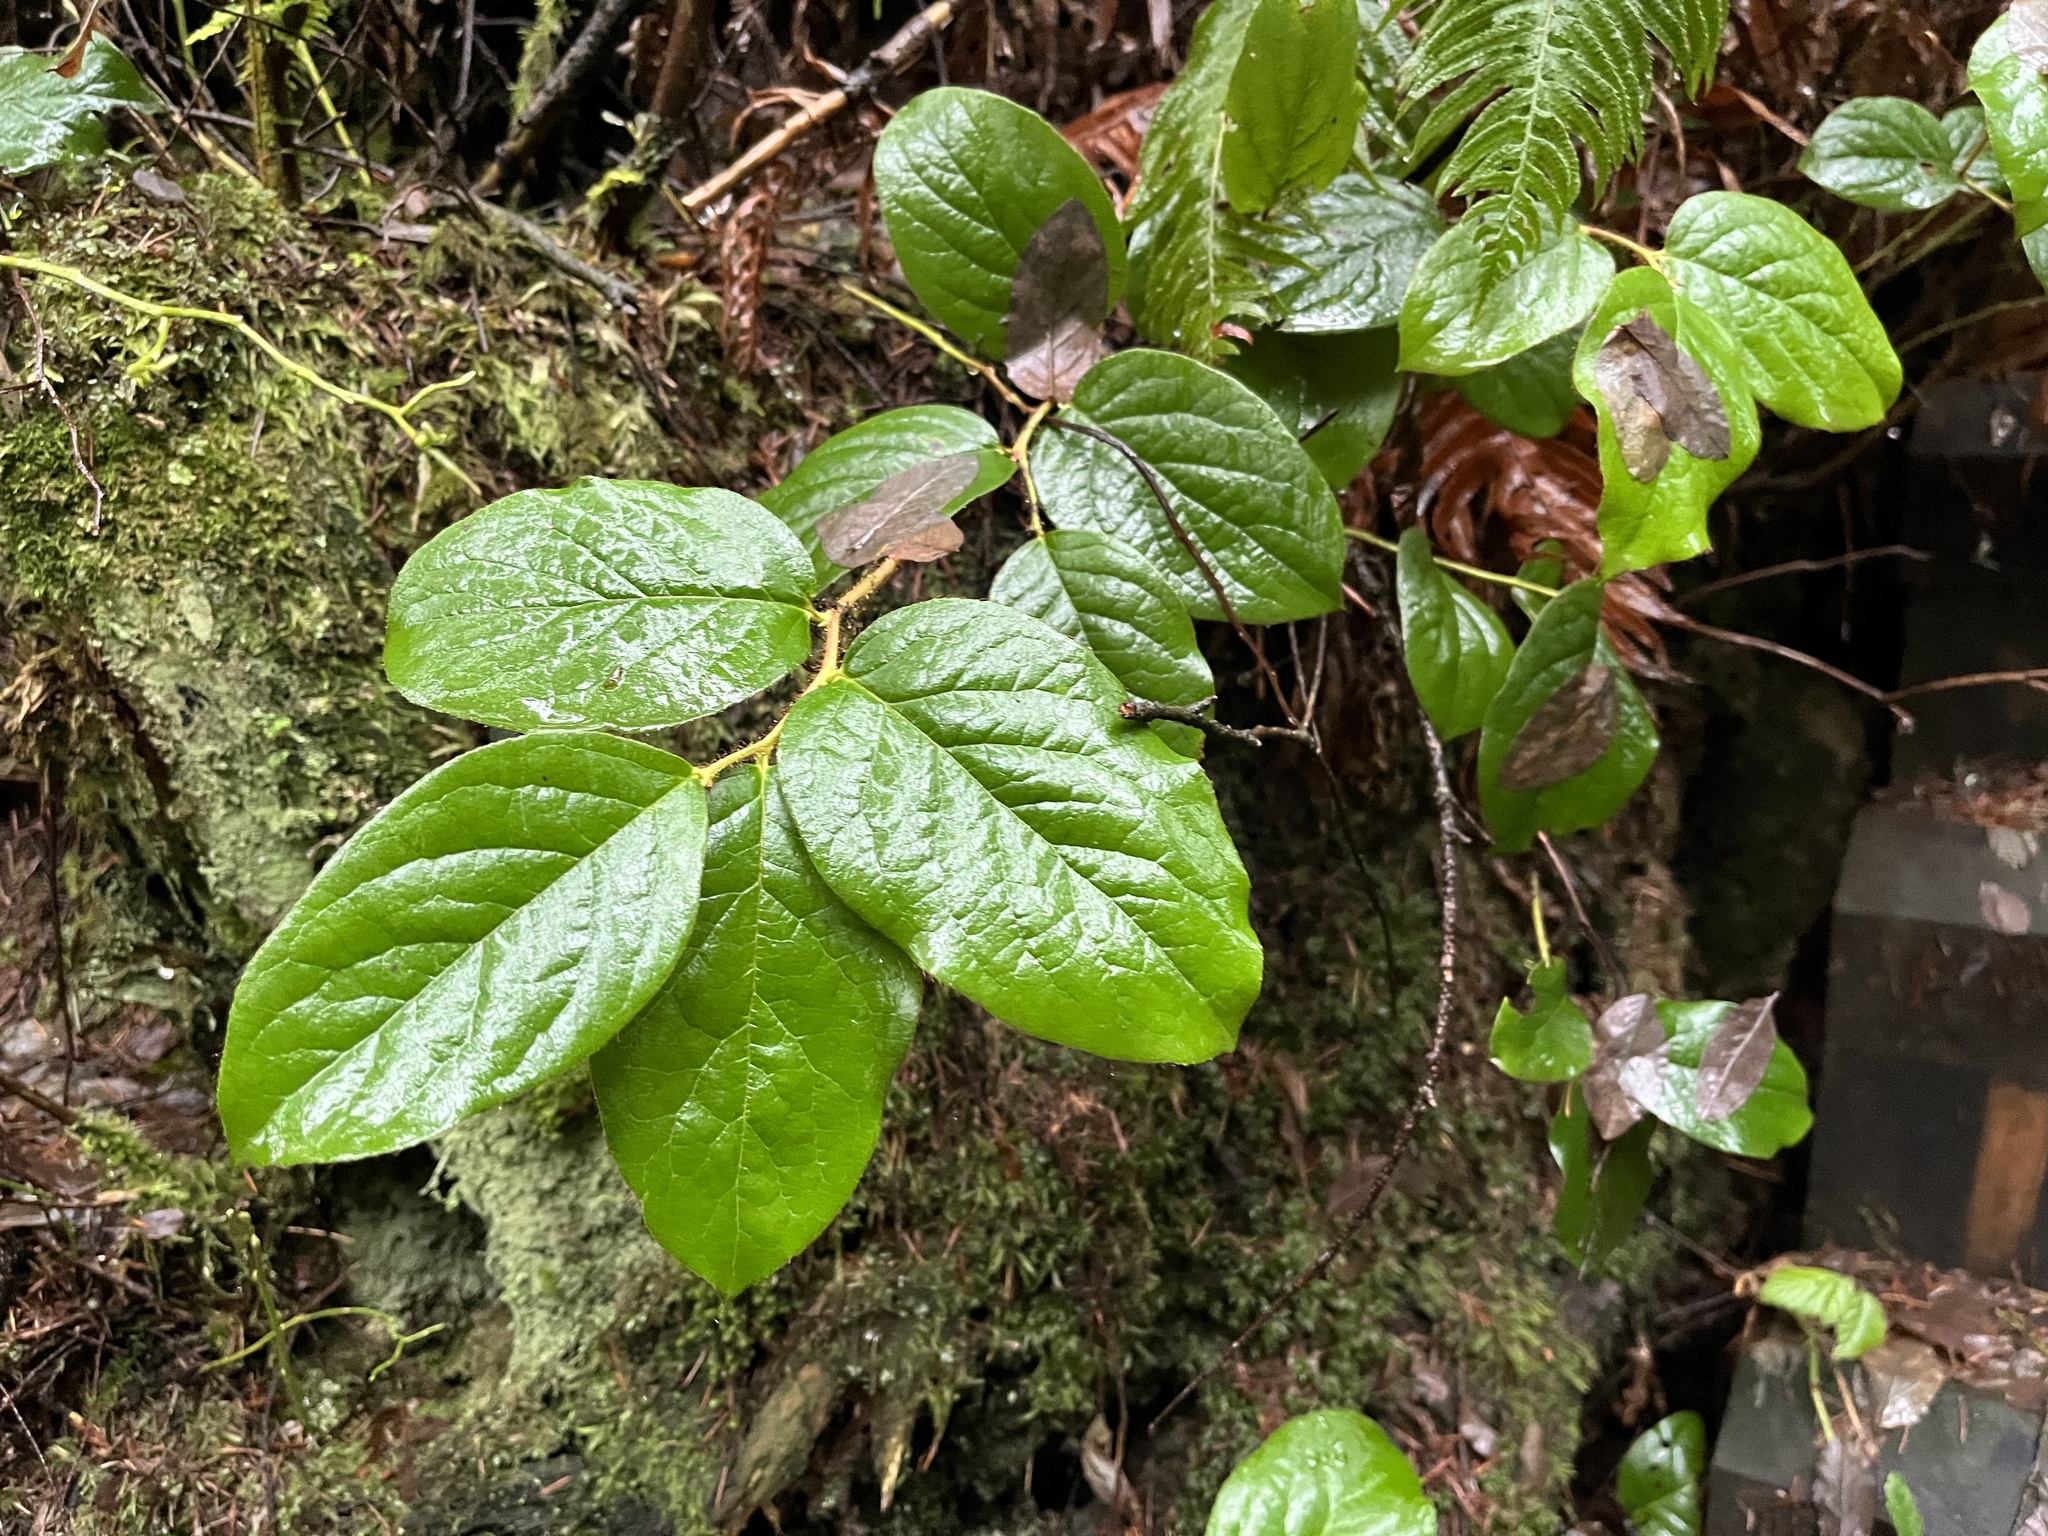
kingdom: Plantae
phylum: Tracheophyta
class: Magnoliopsida
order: Ericales
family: Ericaceae
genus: Gaultheria
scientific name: Gaultheria shallon
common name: Shallon
